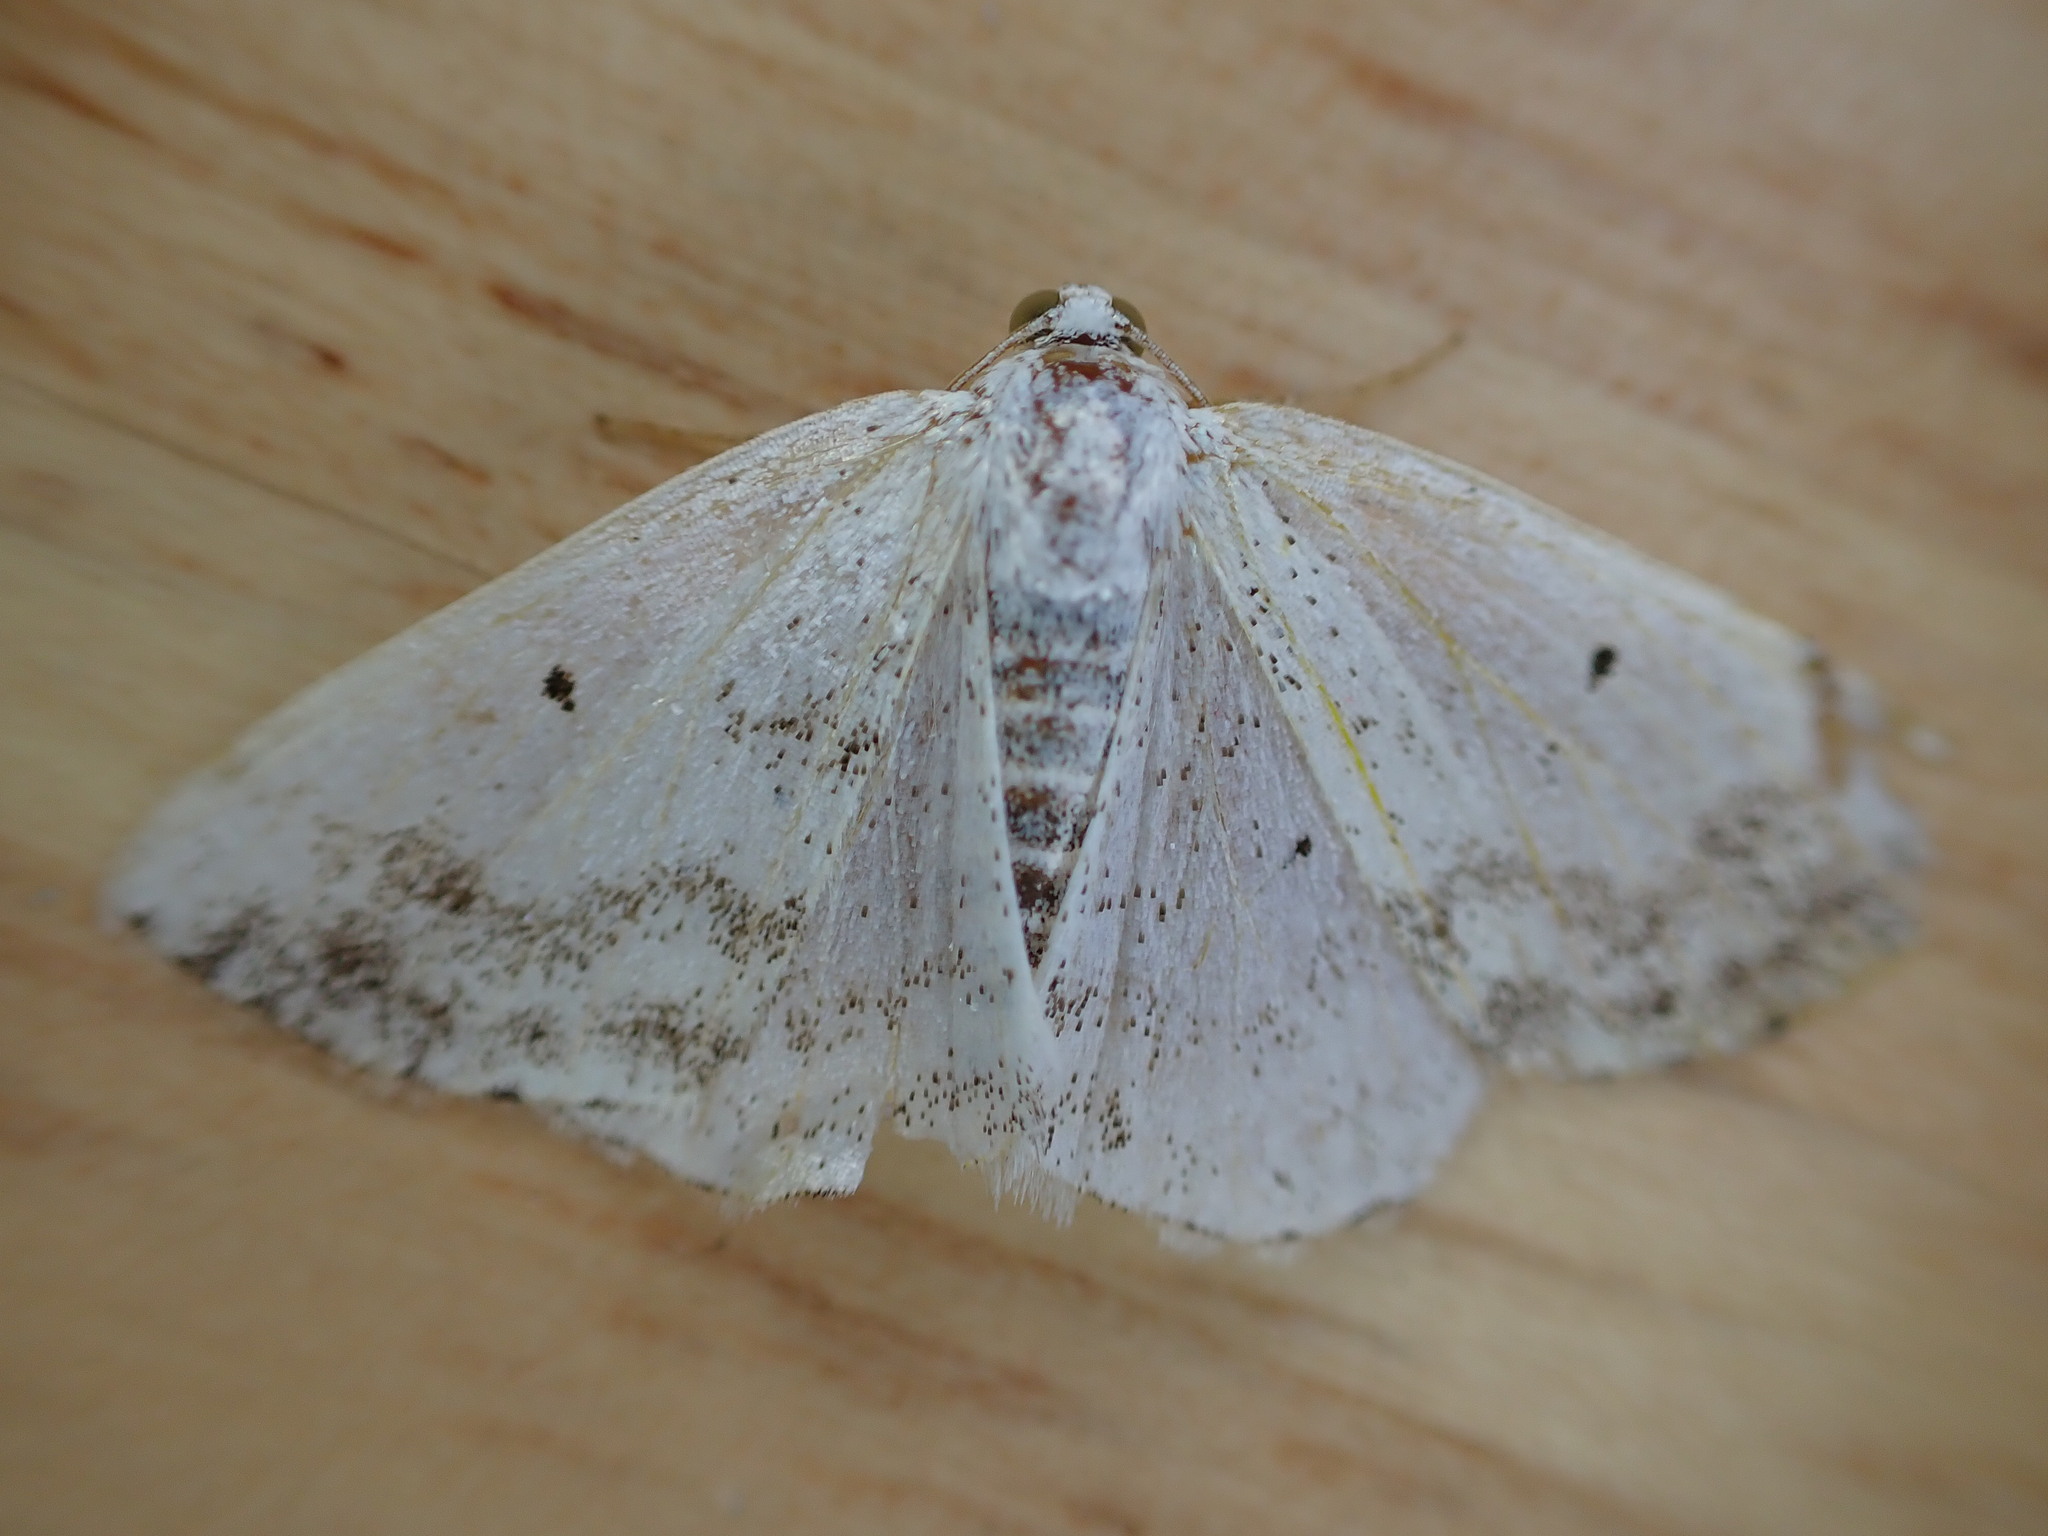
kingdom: Animalia
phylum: Arthropoda
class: Insecta
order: Lepidoptera
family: Geometridae
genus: Lomographa
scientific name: Lomographa temerata
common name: Clouded silver
